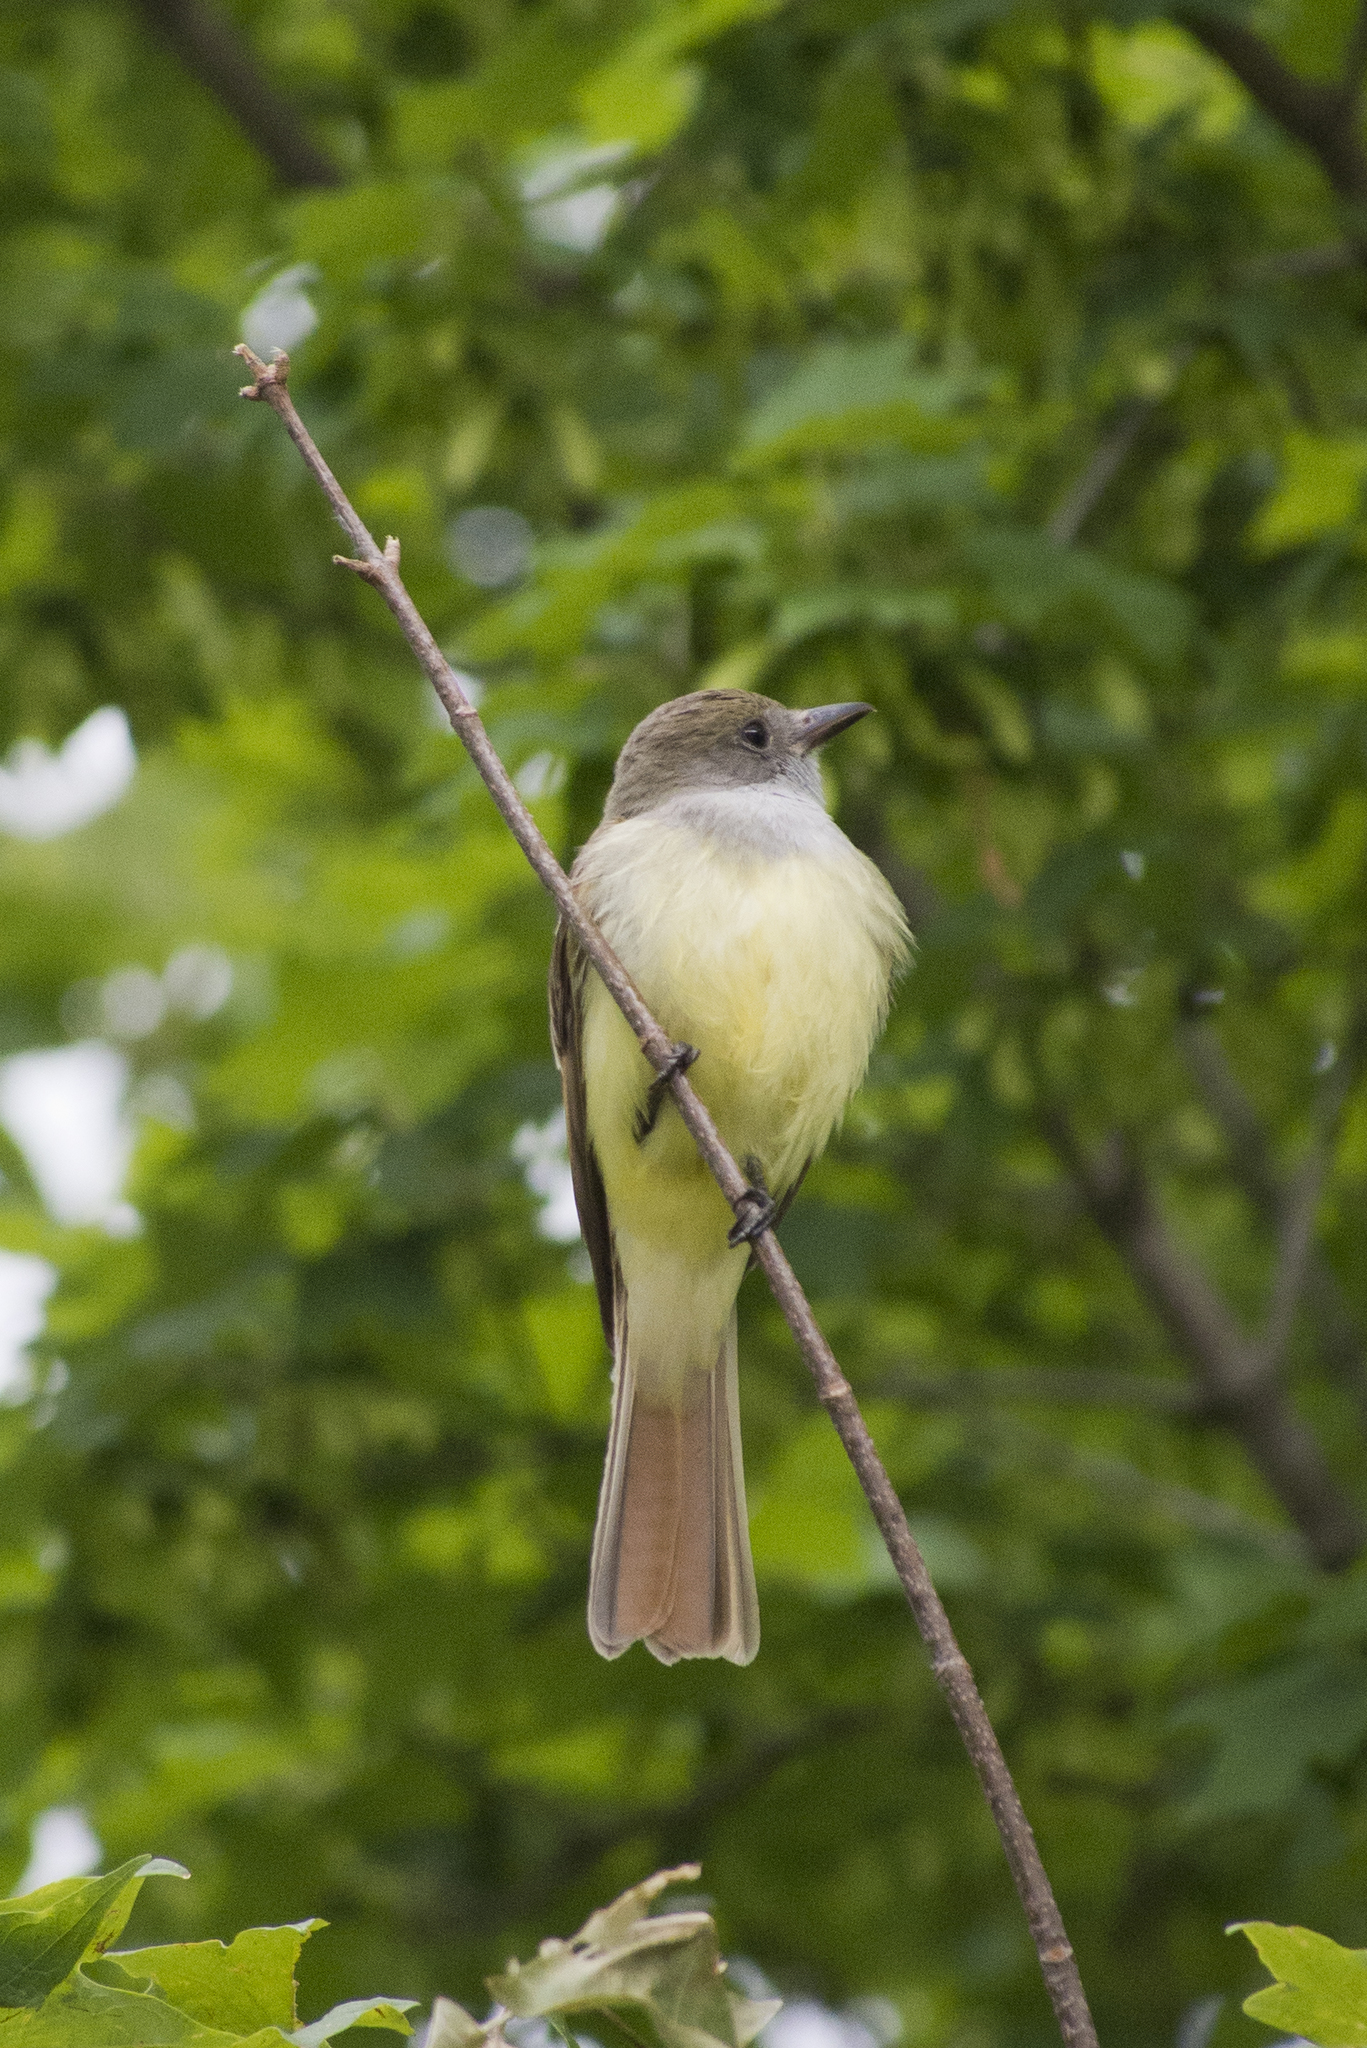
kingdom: Animalia
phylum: Chordata
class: Aves
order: Passeriformes
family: Tyrannidae
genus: Myiarchus
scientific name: Myiarchus crinitus
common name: Great crested flycatcher
